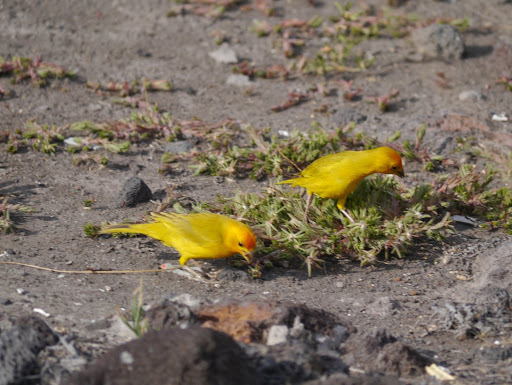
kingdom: Animalia
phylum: Chordata
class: Aves
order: Passeriformes
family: Thraupidae
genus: Sicalis
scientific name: Sicalis flaveola
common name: Saffron finch
